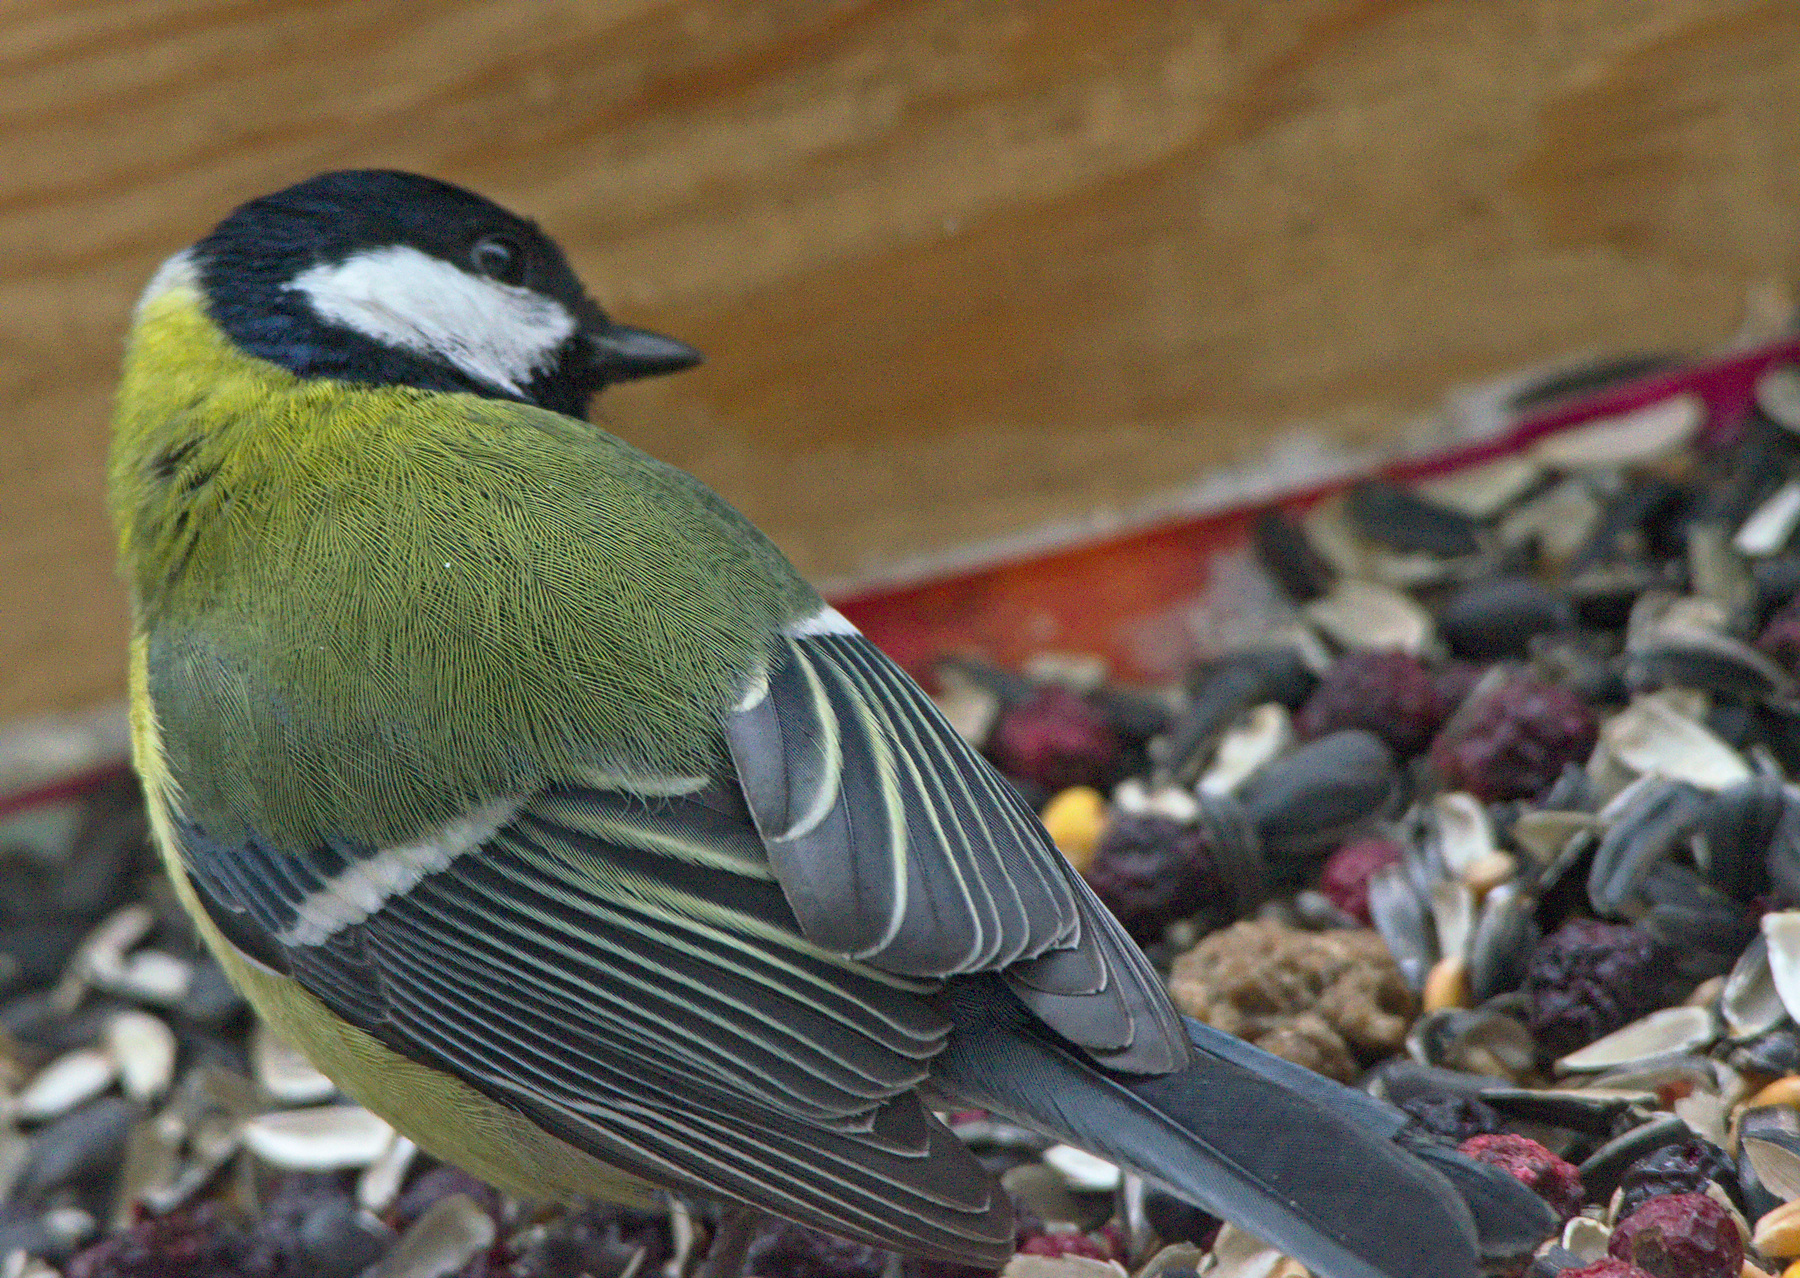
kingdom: Animalia
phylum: Chordata
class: Aves
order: Passeriformes
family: Paridae
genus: Parus
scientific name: Parus major
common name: Great tit
